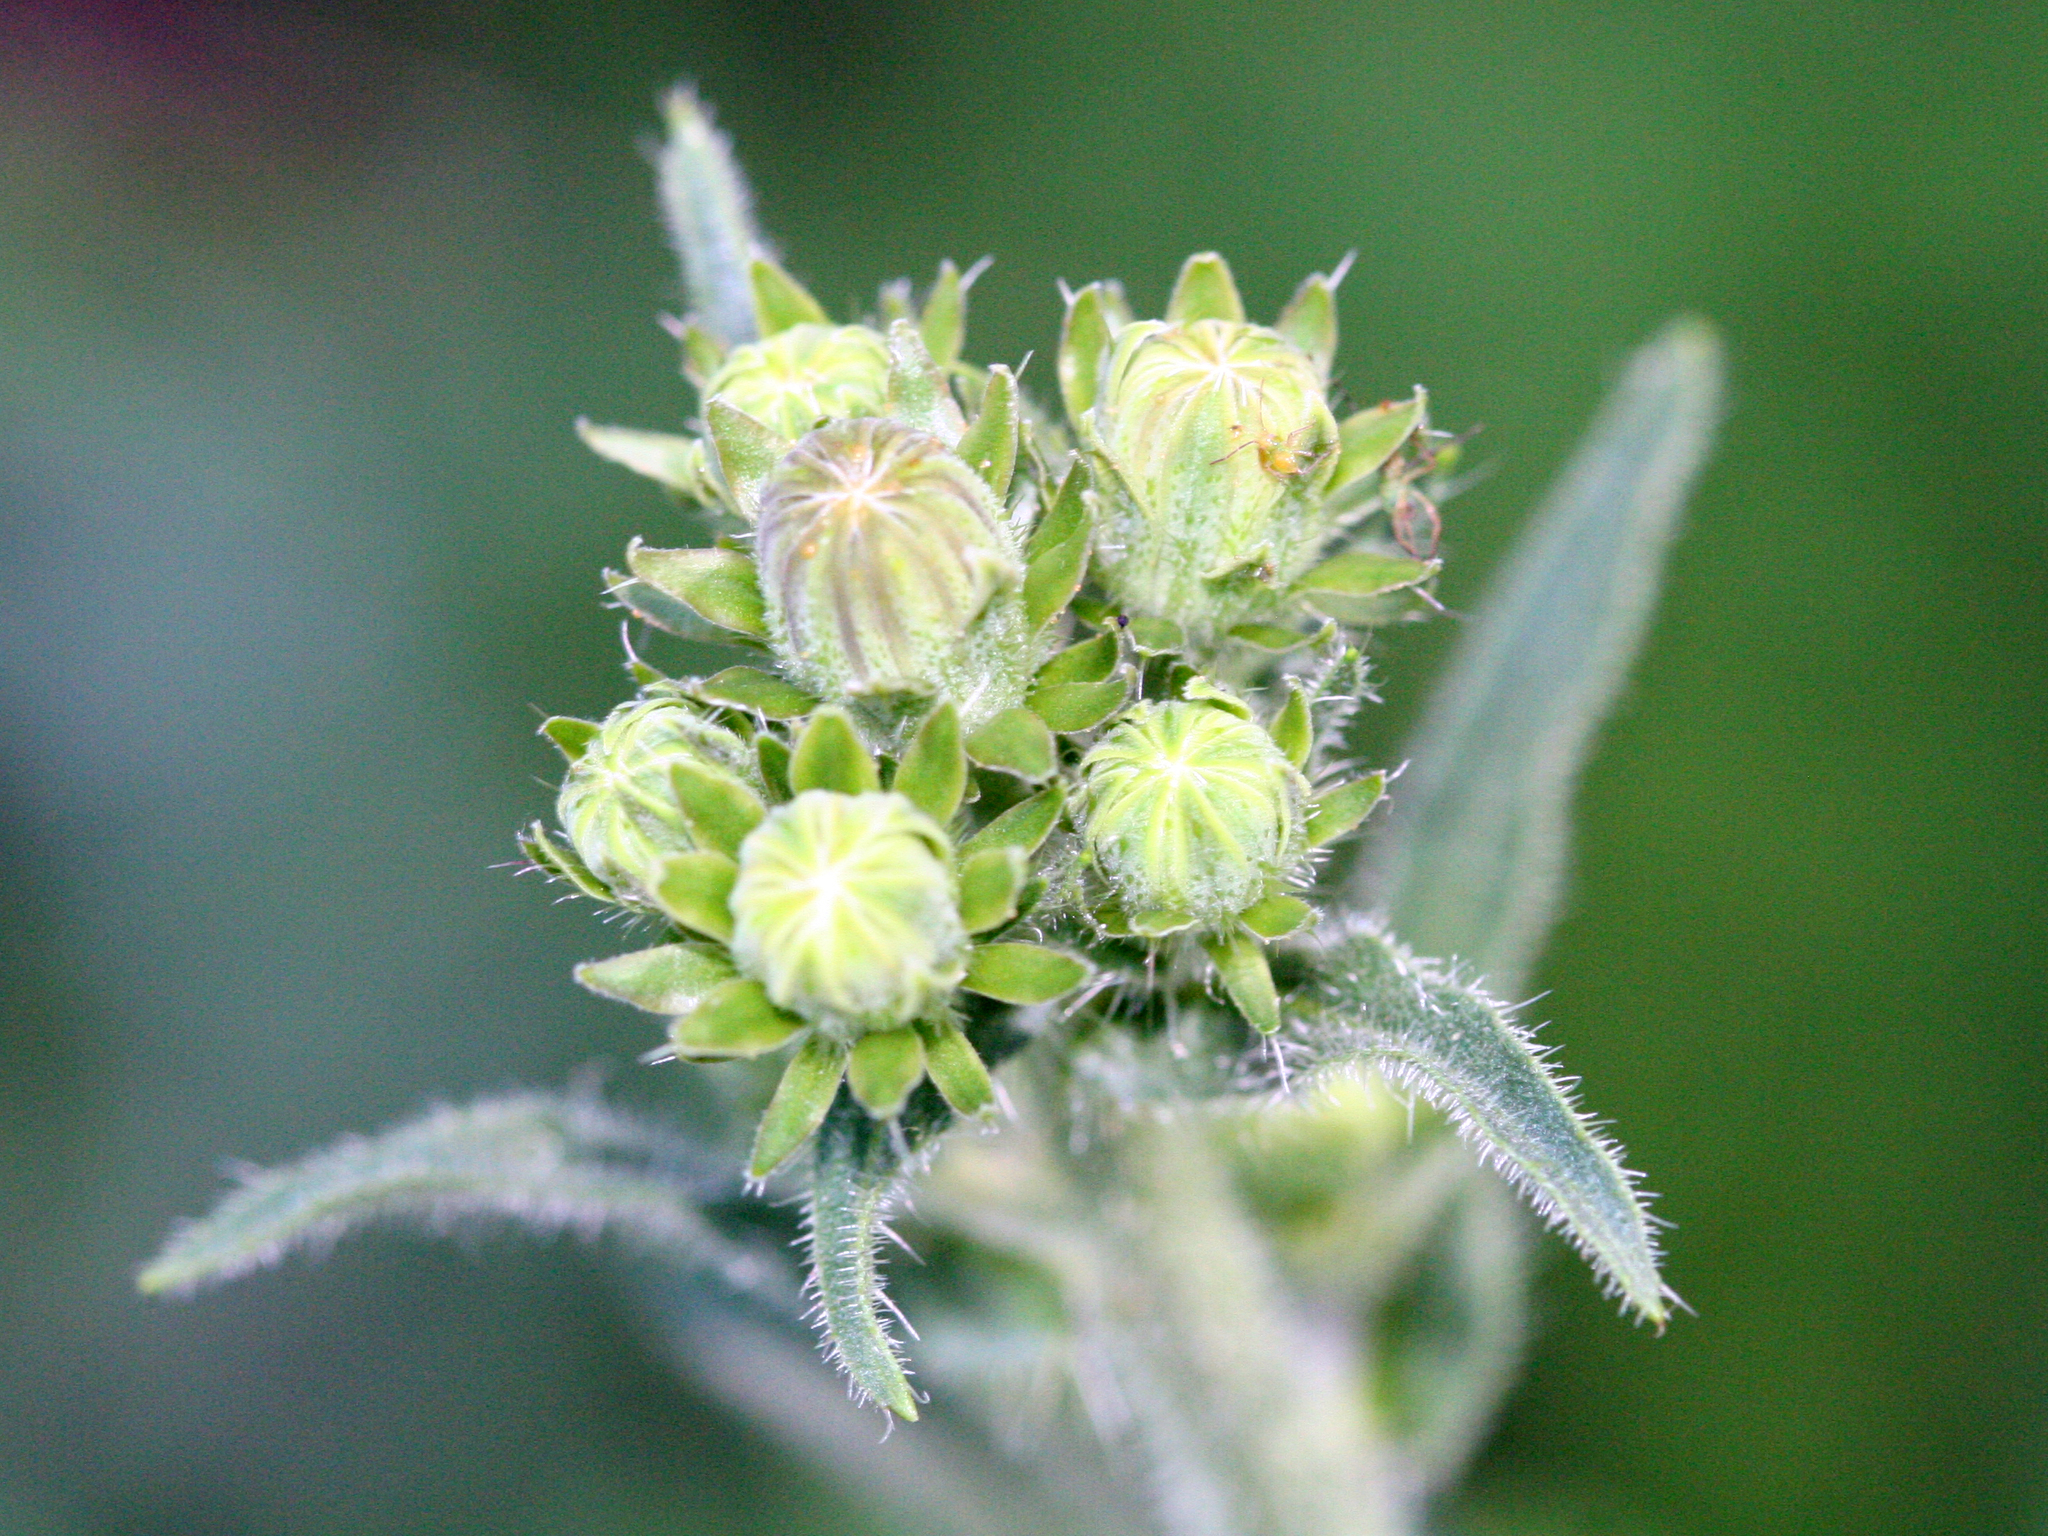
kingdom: Plantae
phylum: Tracheophyta
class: Magnoliopsida
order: Asterales
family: Asteraceae
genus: Picris
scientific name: Picris hieracioides
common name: Hawkweed oxtongue
